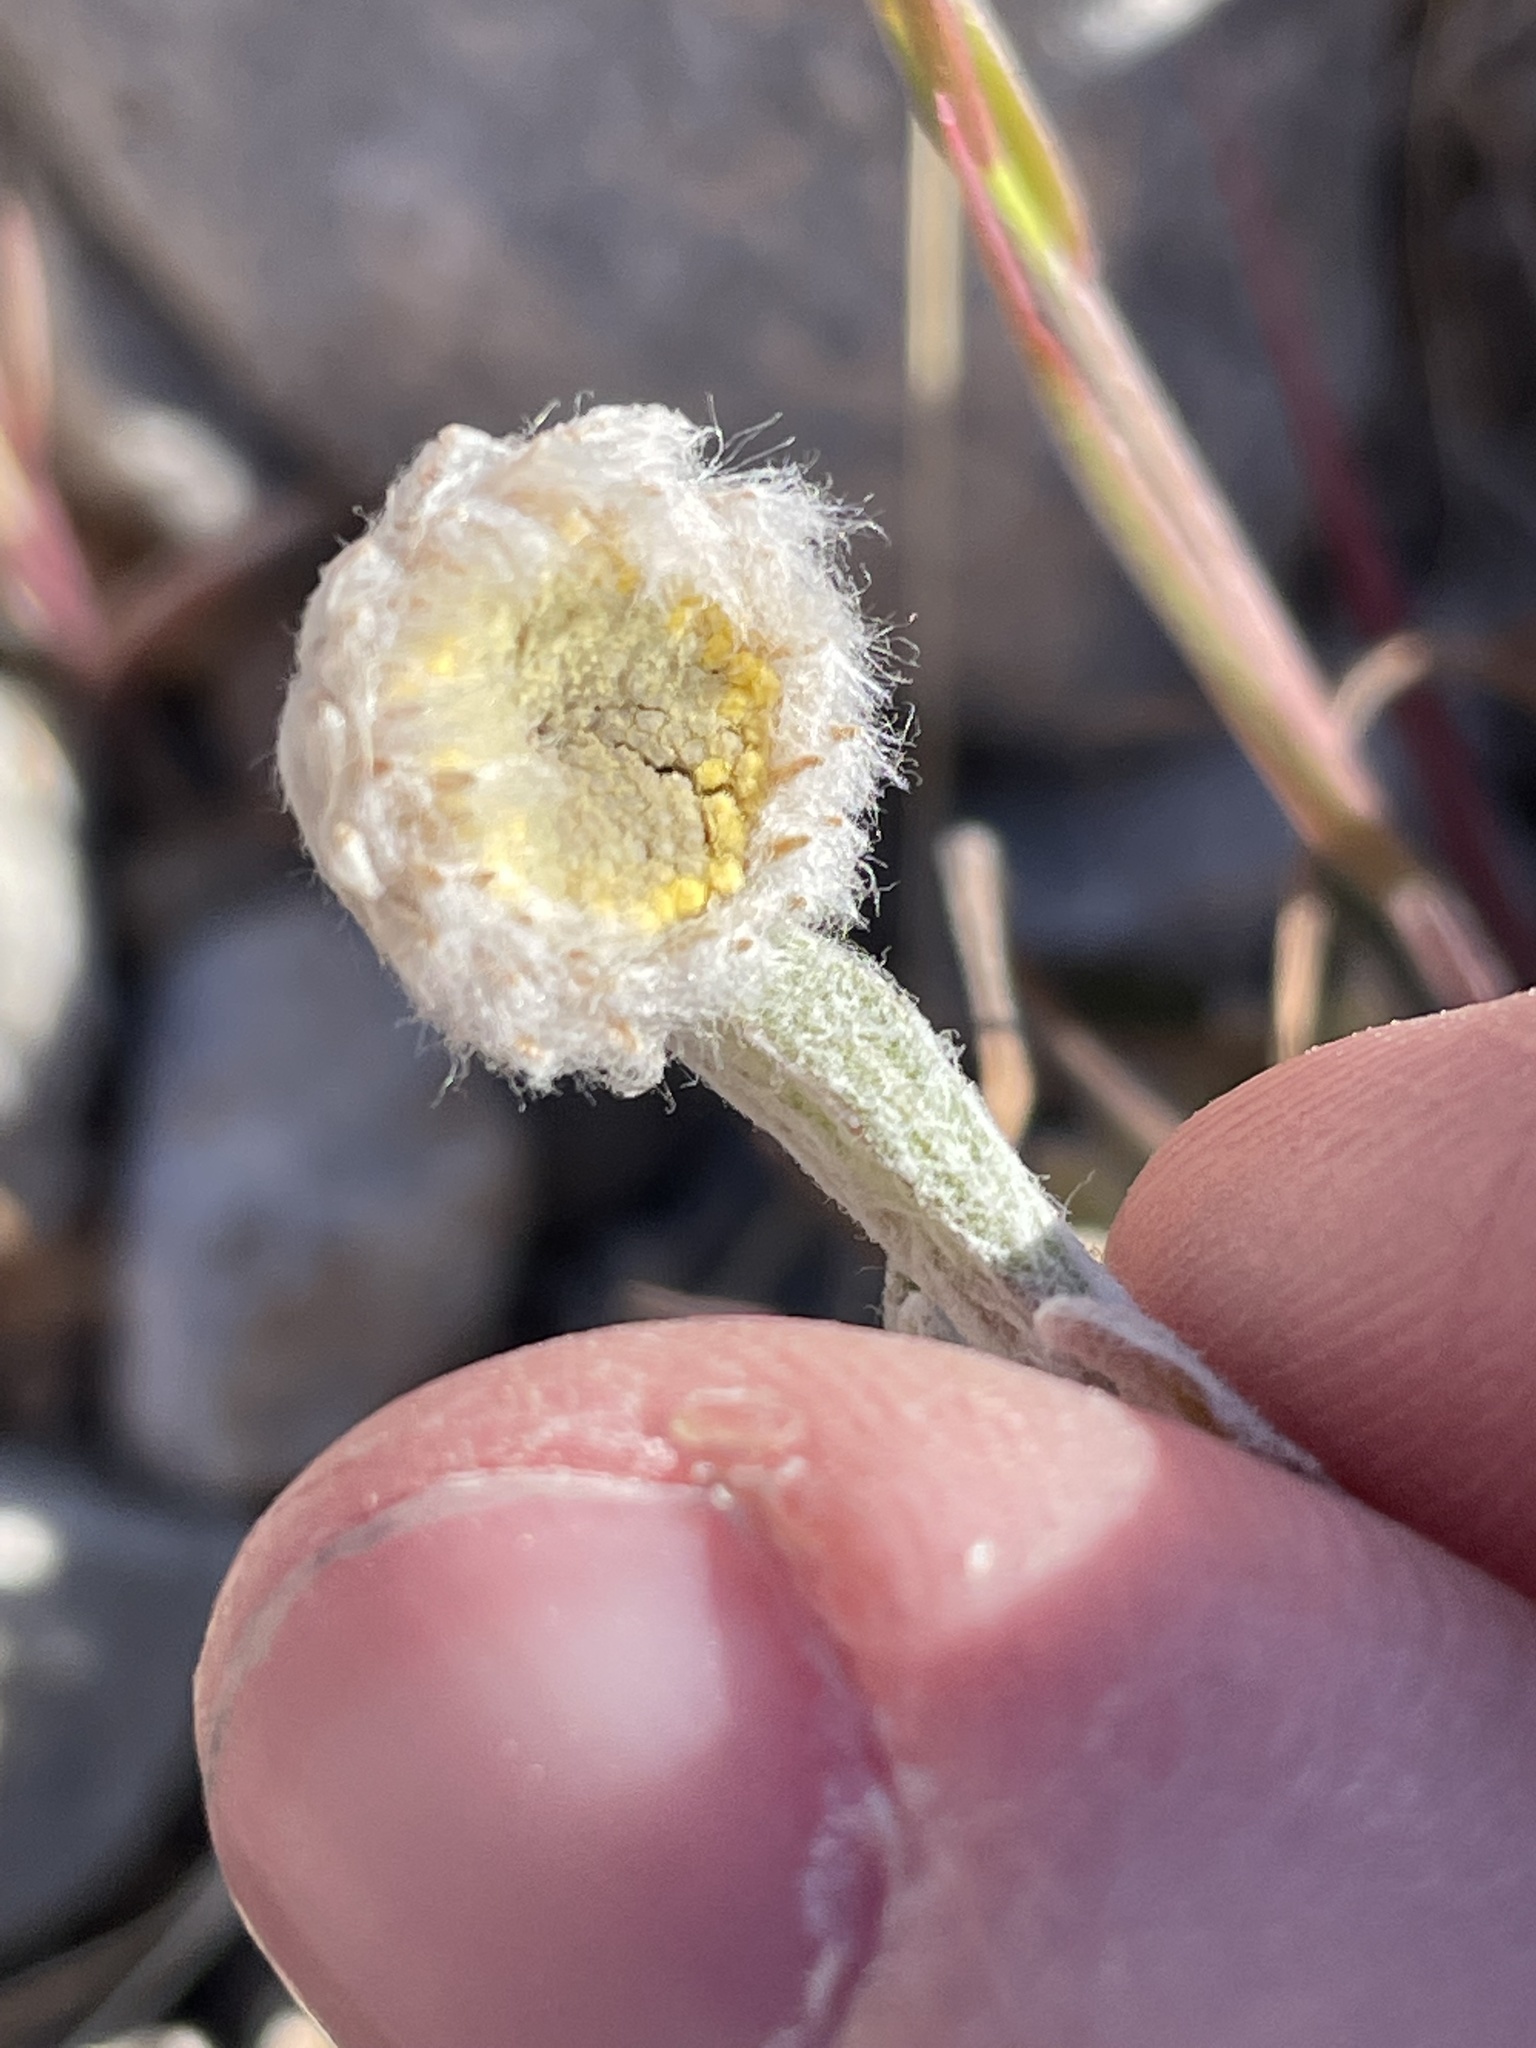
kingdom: Plantae
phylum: Tracheophyta
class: Magnoliopsida
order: Asterales
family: Asteraceae
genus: Baileya
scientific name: Baileya multiradiata
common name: Desert-marigold
